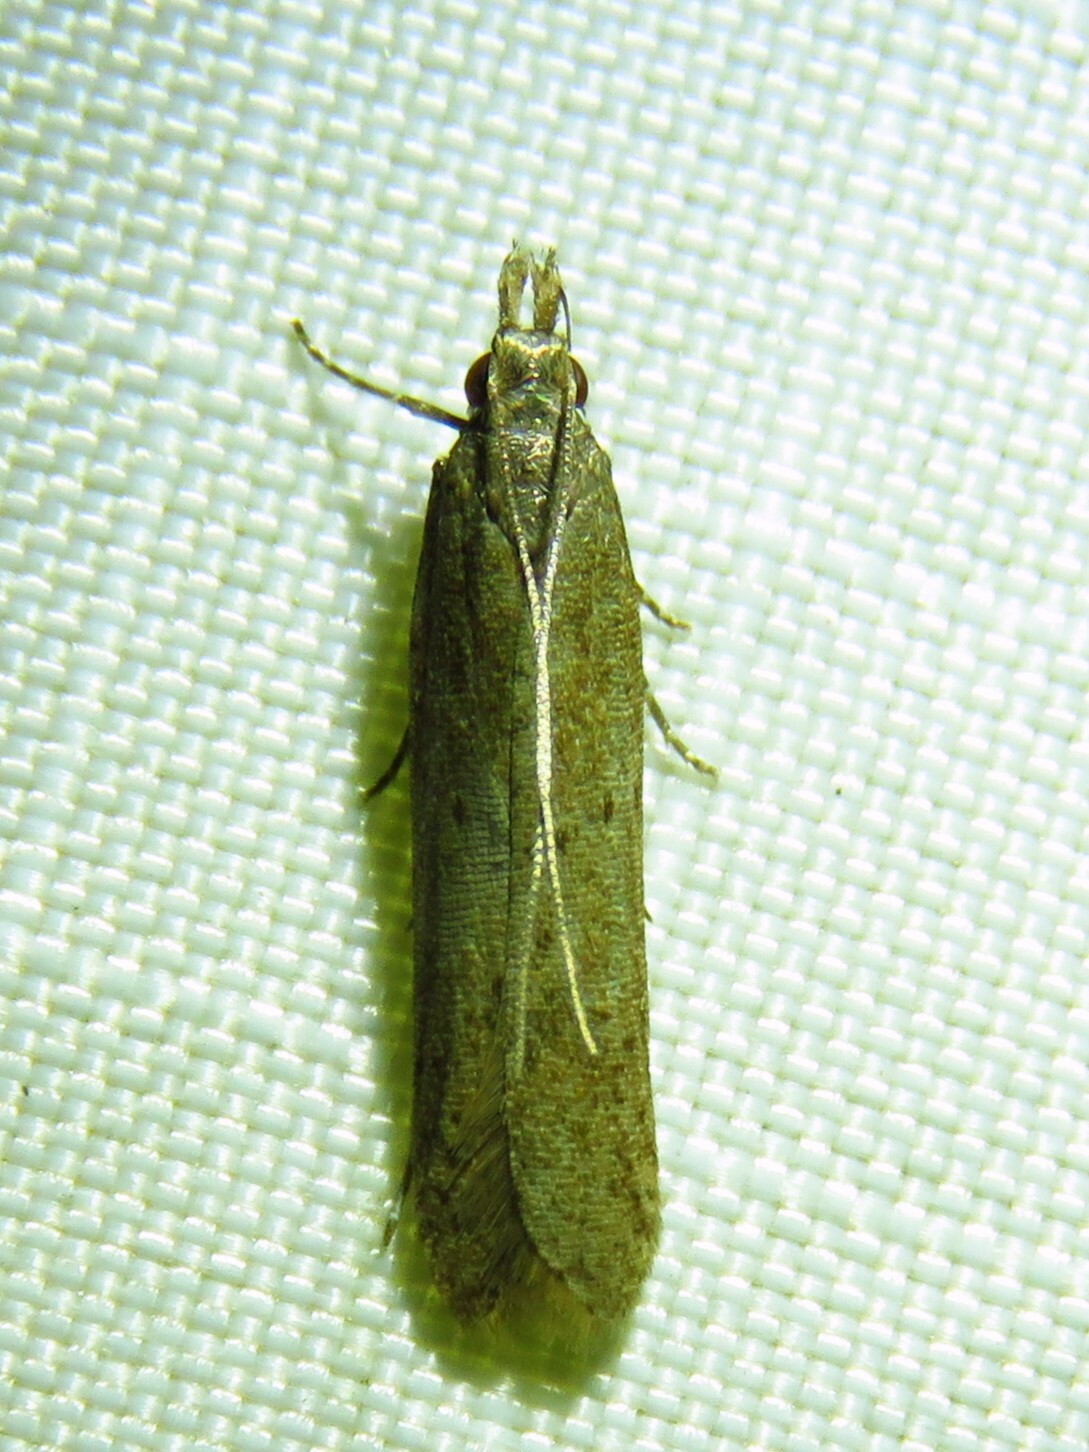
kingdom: Animalia
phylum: Arthropoda
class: Insecta
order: Lepidoptera
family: Gelechiidae
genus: Dichomeris
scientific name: Dichomeris ligulella
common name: Moth
